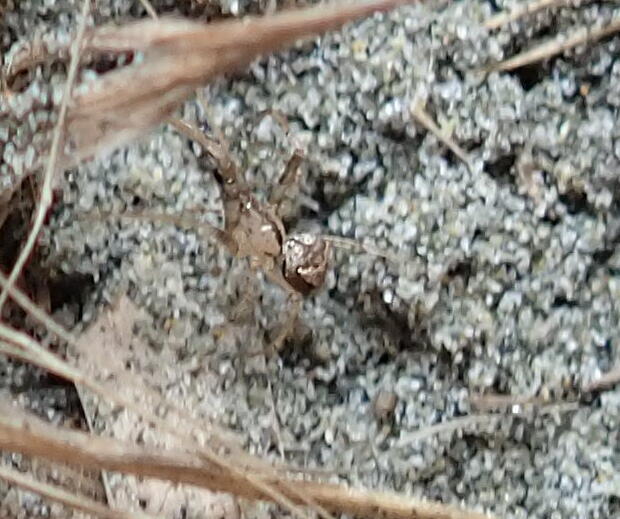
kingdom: Animalia
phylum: Arthropoda
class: Arachnida
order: Araneae
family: Mimetidae
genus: Australomimetus
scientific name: Australomimetus hartleyensis
